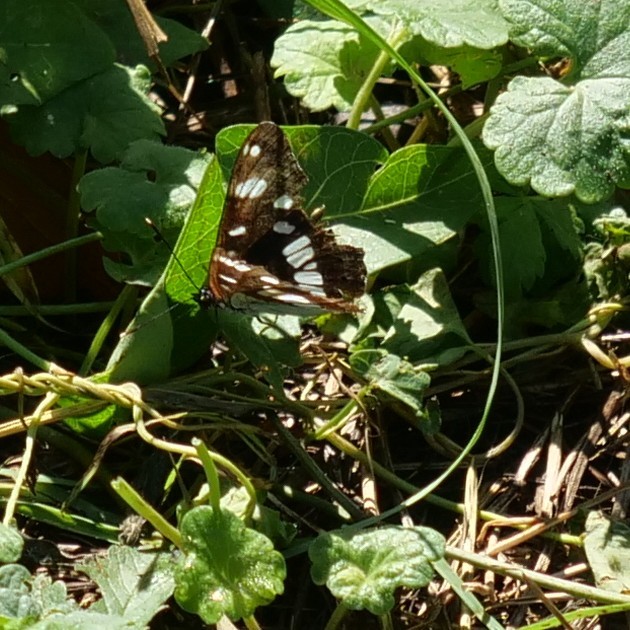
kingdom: Animalia
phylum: Arthropoda
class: Insecta
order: Lepidoptera
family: Nymphalidae
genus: Limenitis
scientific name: Limenitis reducta
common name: Southern white admiral
